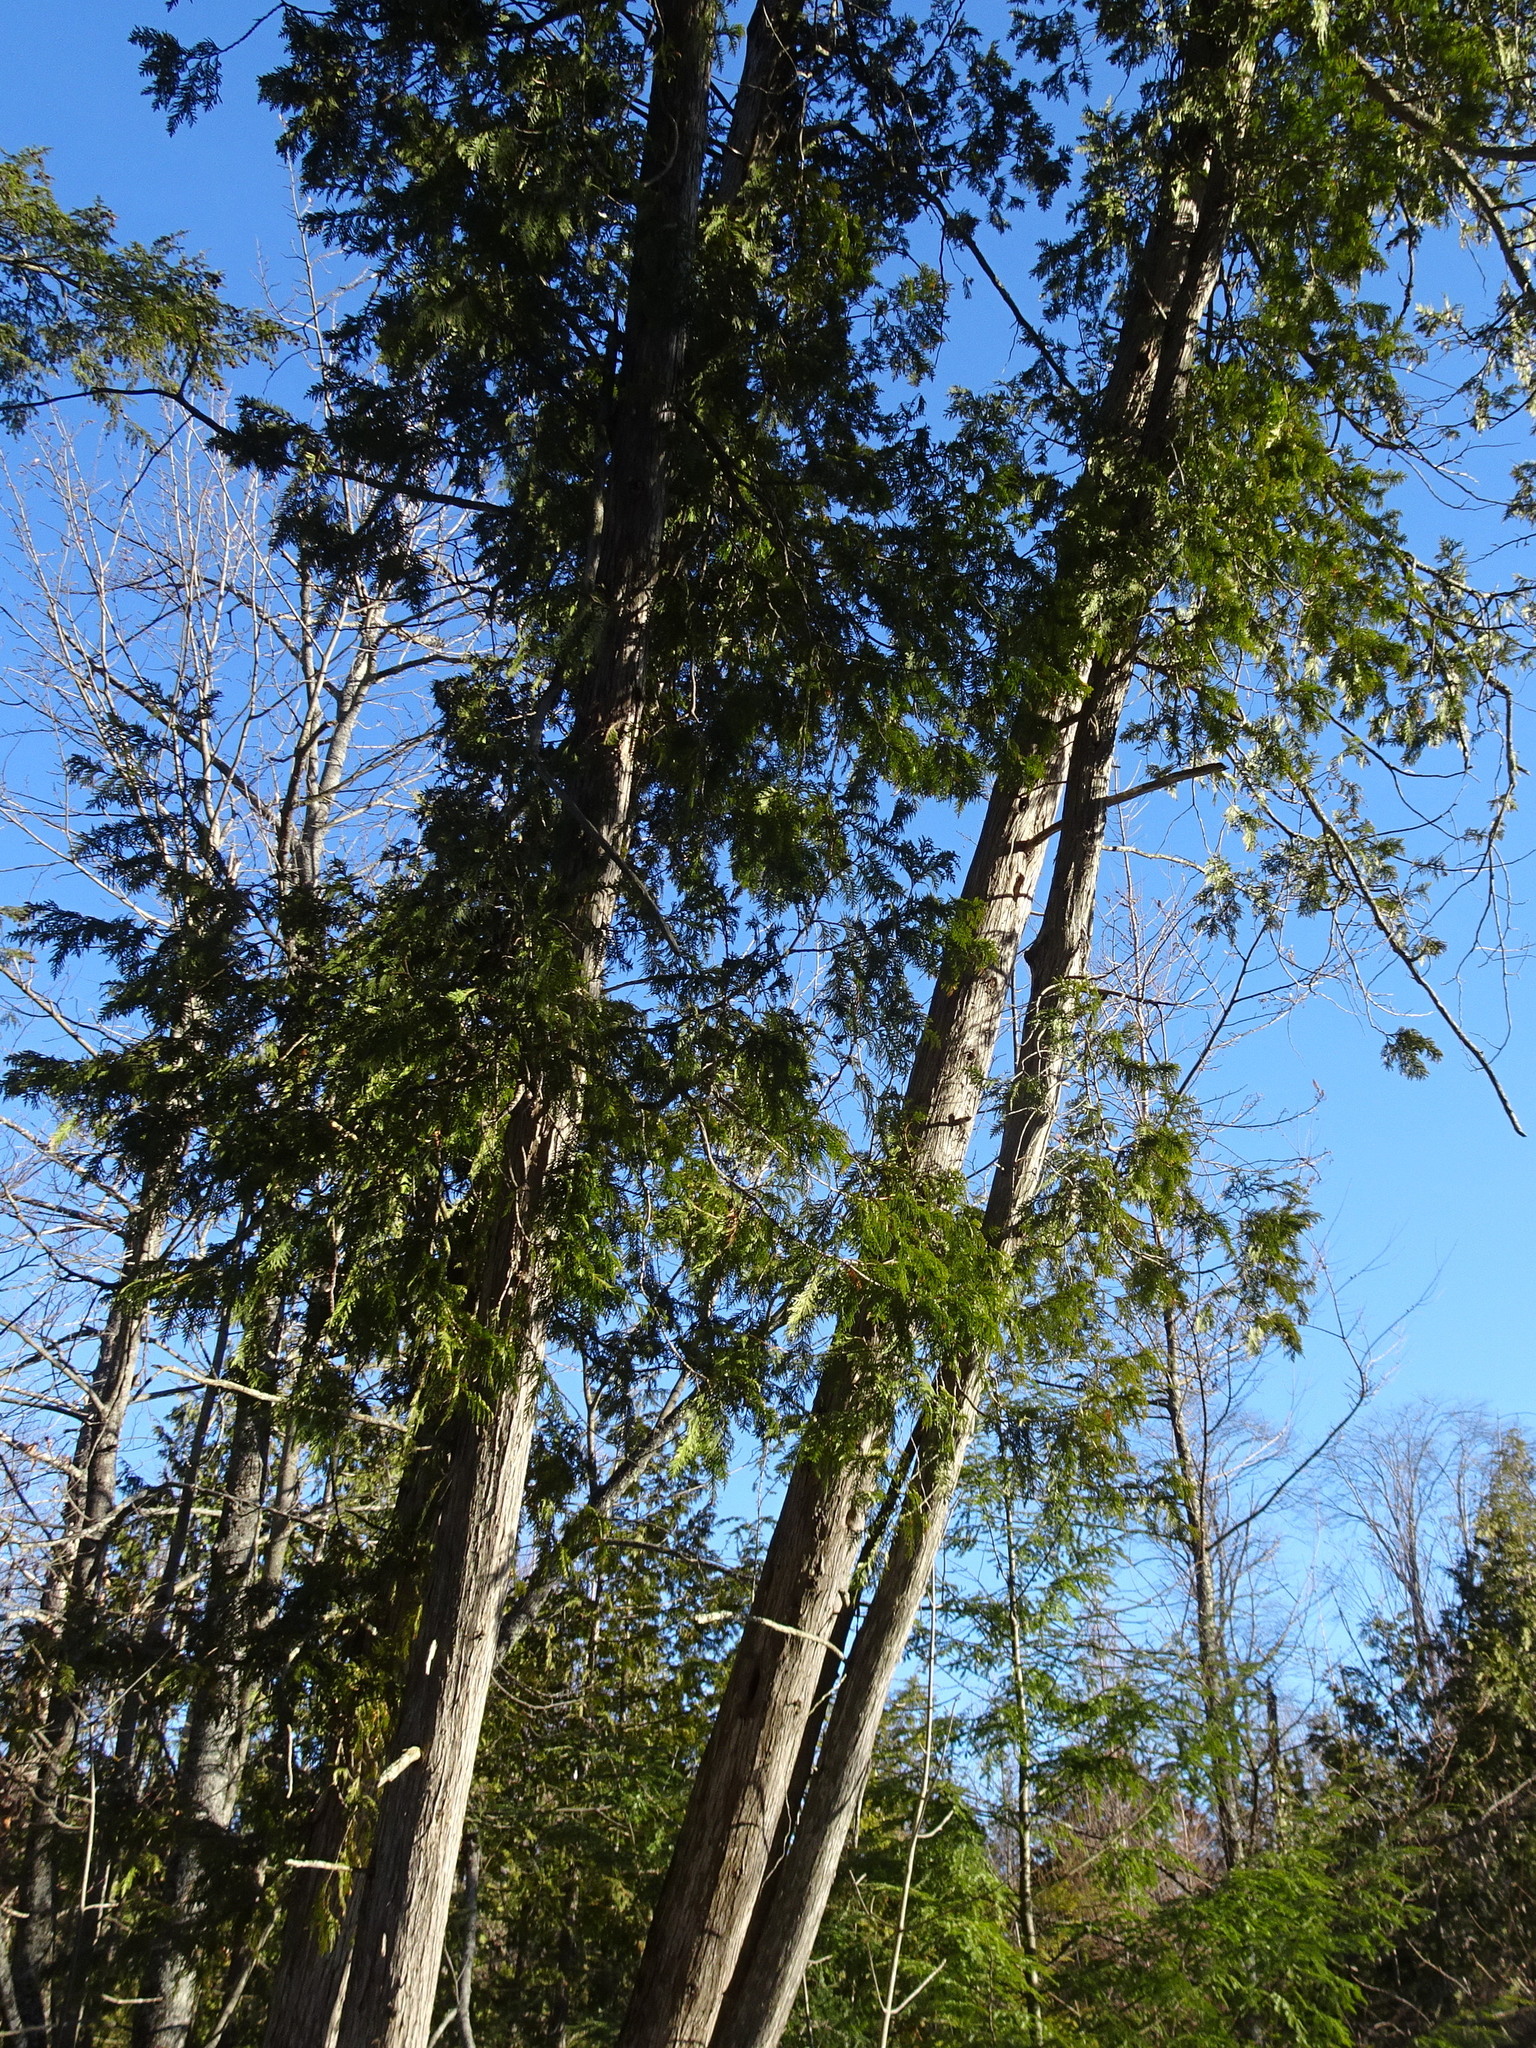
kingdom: Plantae
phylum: Tracheophyta
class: Pinopsida
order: Pinales
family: Cupressaceae
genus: Thuja
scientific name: Thuja occidentalis
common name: Northern white-cedar
